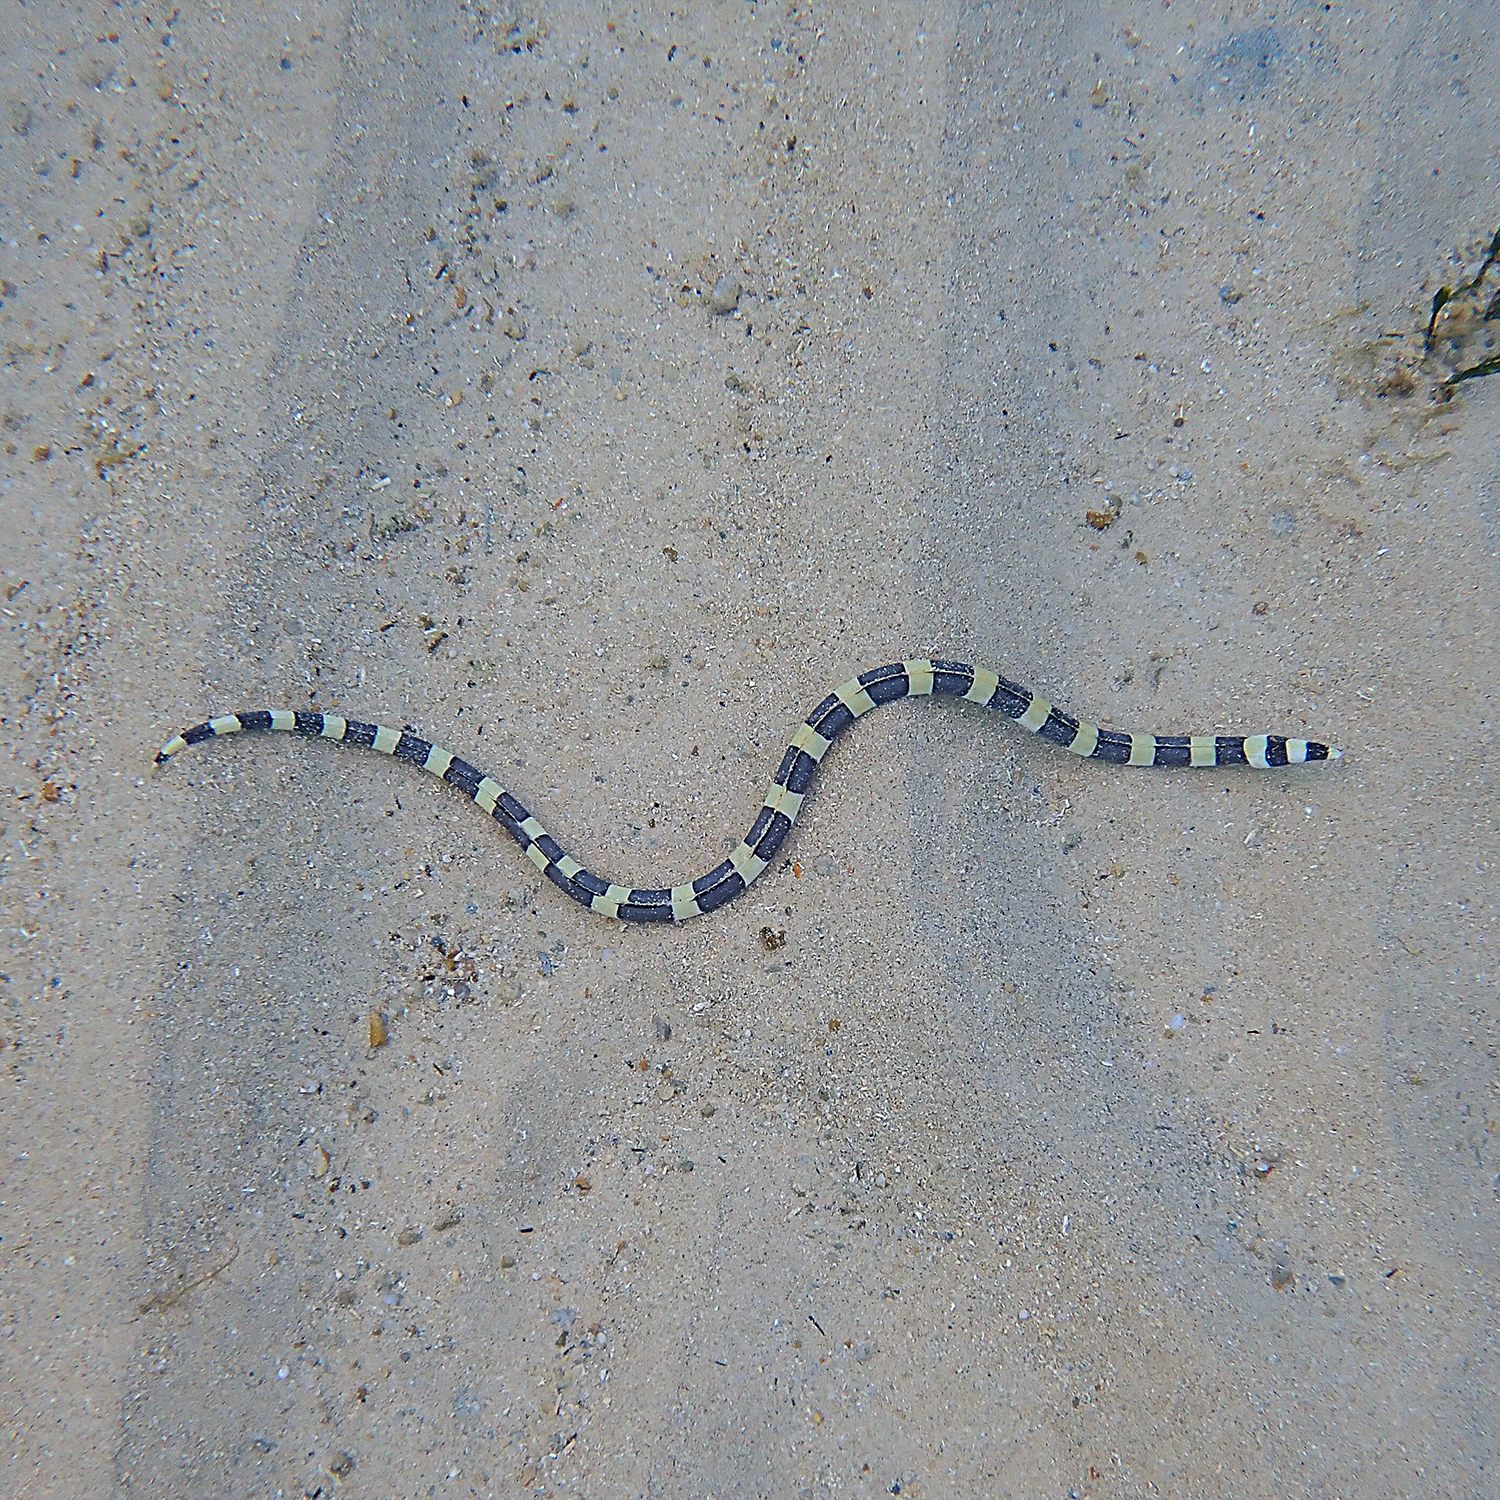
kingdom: Animalia
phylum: Chordata
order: Anguilliformes
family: Ophichthidae
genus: Leiuranus
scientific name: Leiuranus semicinctus
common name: Saddled snake eel
